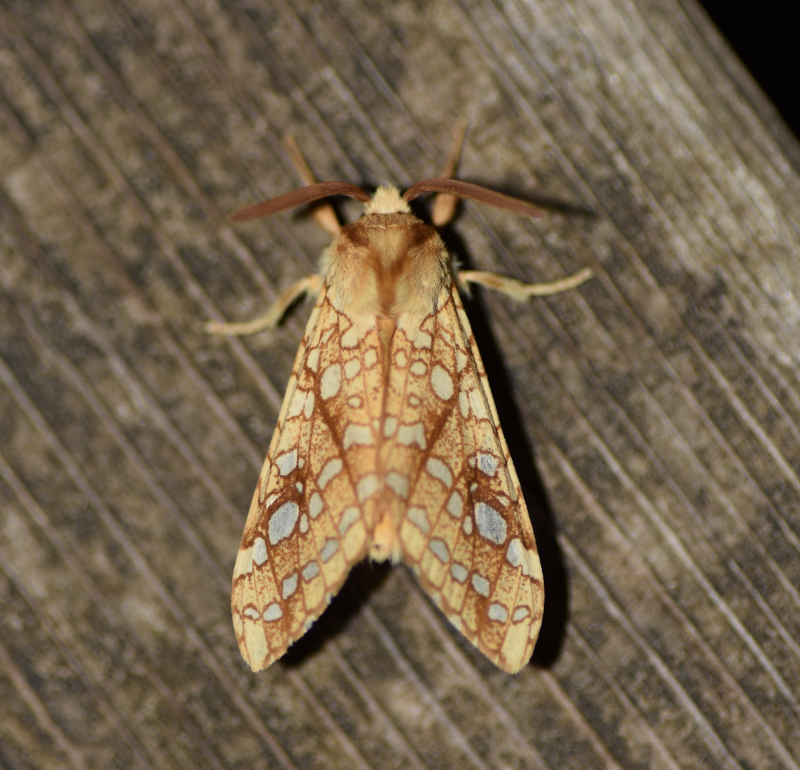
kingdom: Animalia
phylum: Arthropoda
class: Insecta
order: Lepidoptera
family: Erebidae
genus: Lophocampa
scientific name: Lophocampa caryae
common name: Hickory tussock moth
